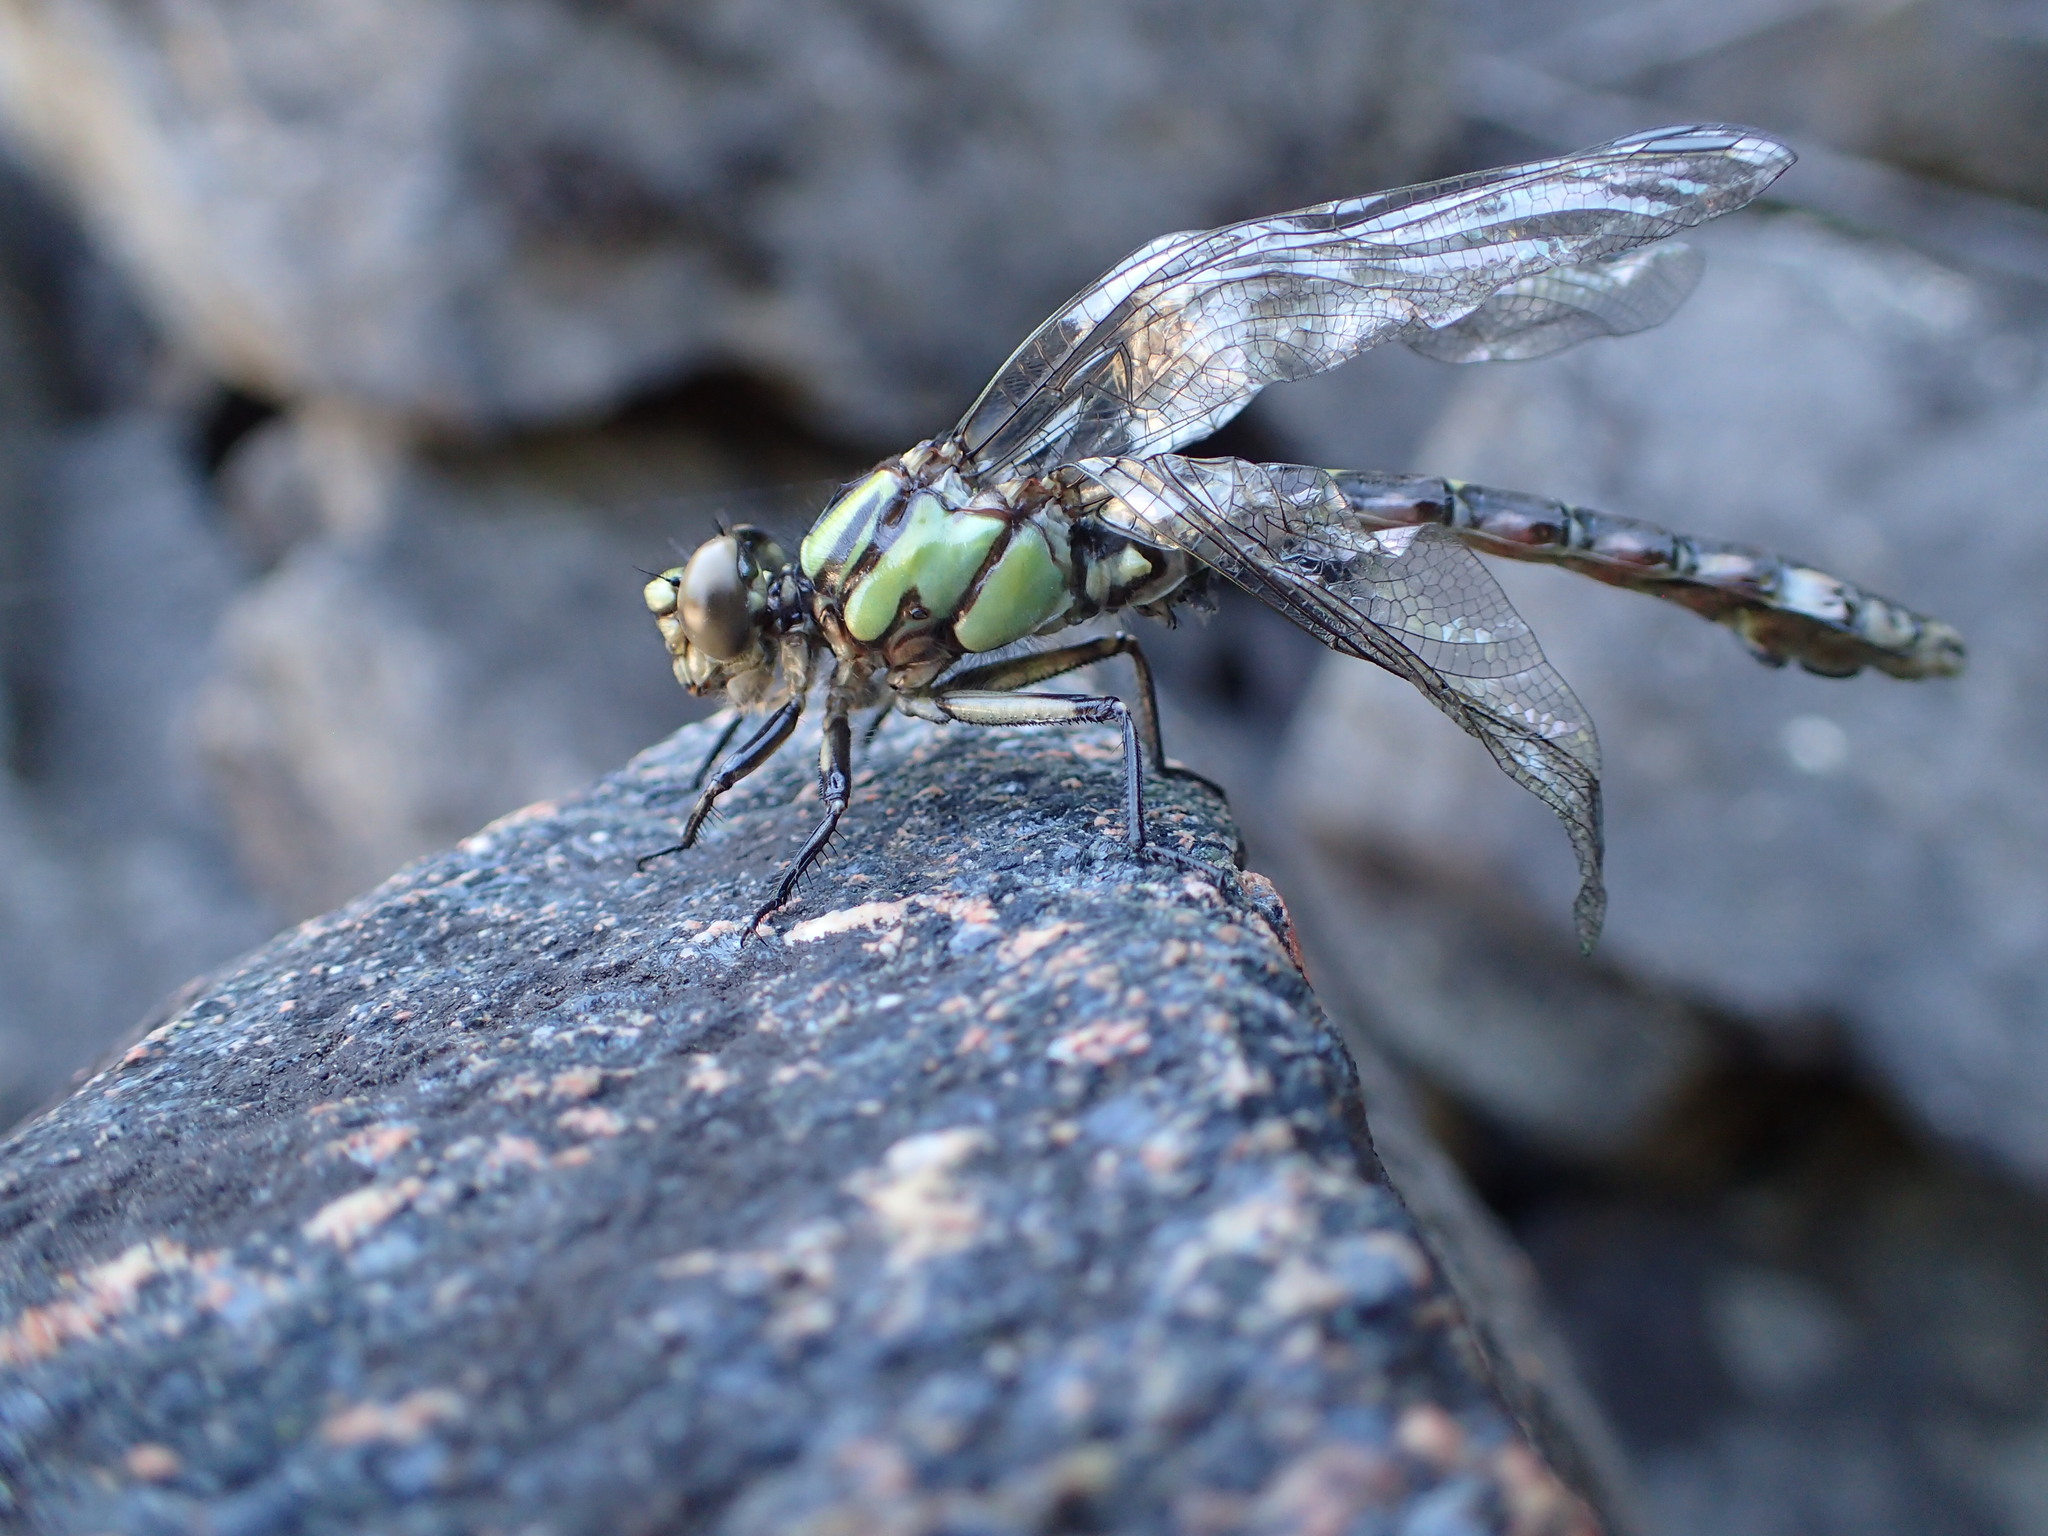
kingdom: Animalia
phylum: Arthropoda
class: Insecta
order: Odonata
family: Gomphidae
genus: Ophiogomphus
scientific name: Ophiogomphus colubrinus
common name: Boreal snaketail
